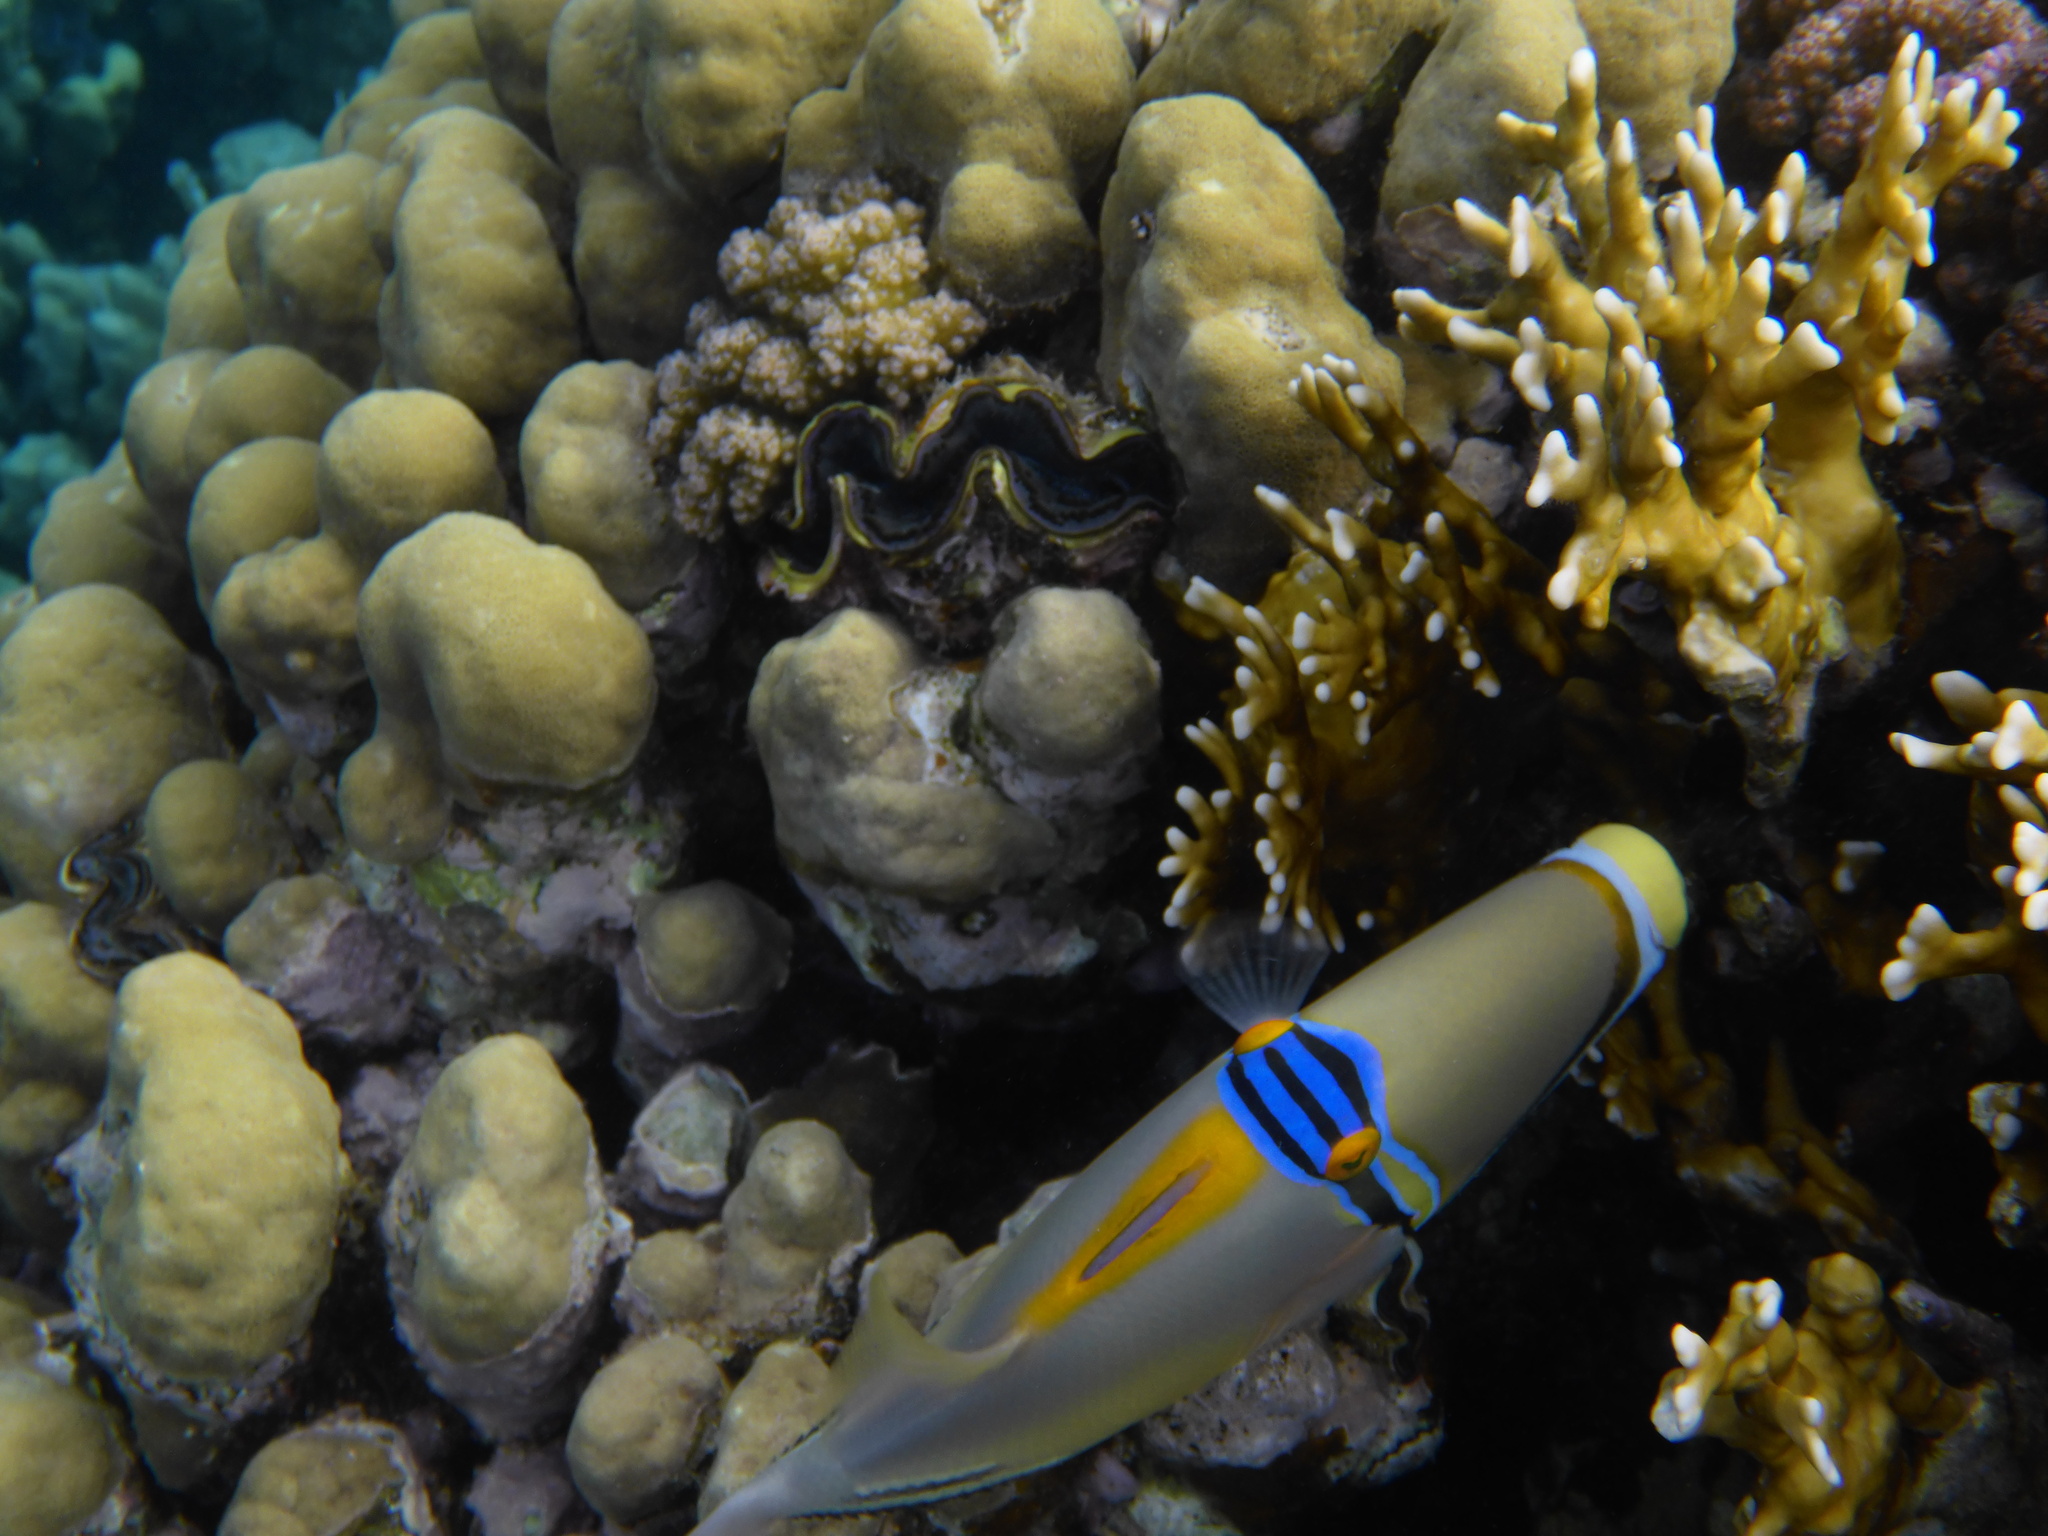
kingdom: Animalia
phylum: Chordata
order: Tetraodontiformes
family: Balistidae
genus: Rhinecanthus
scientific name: Rhinecanthus assasi
